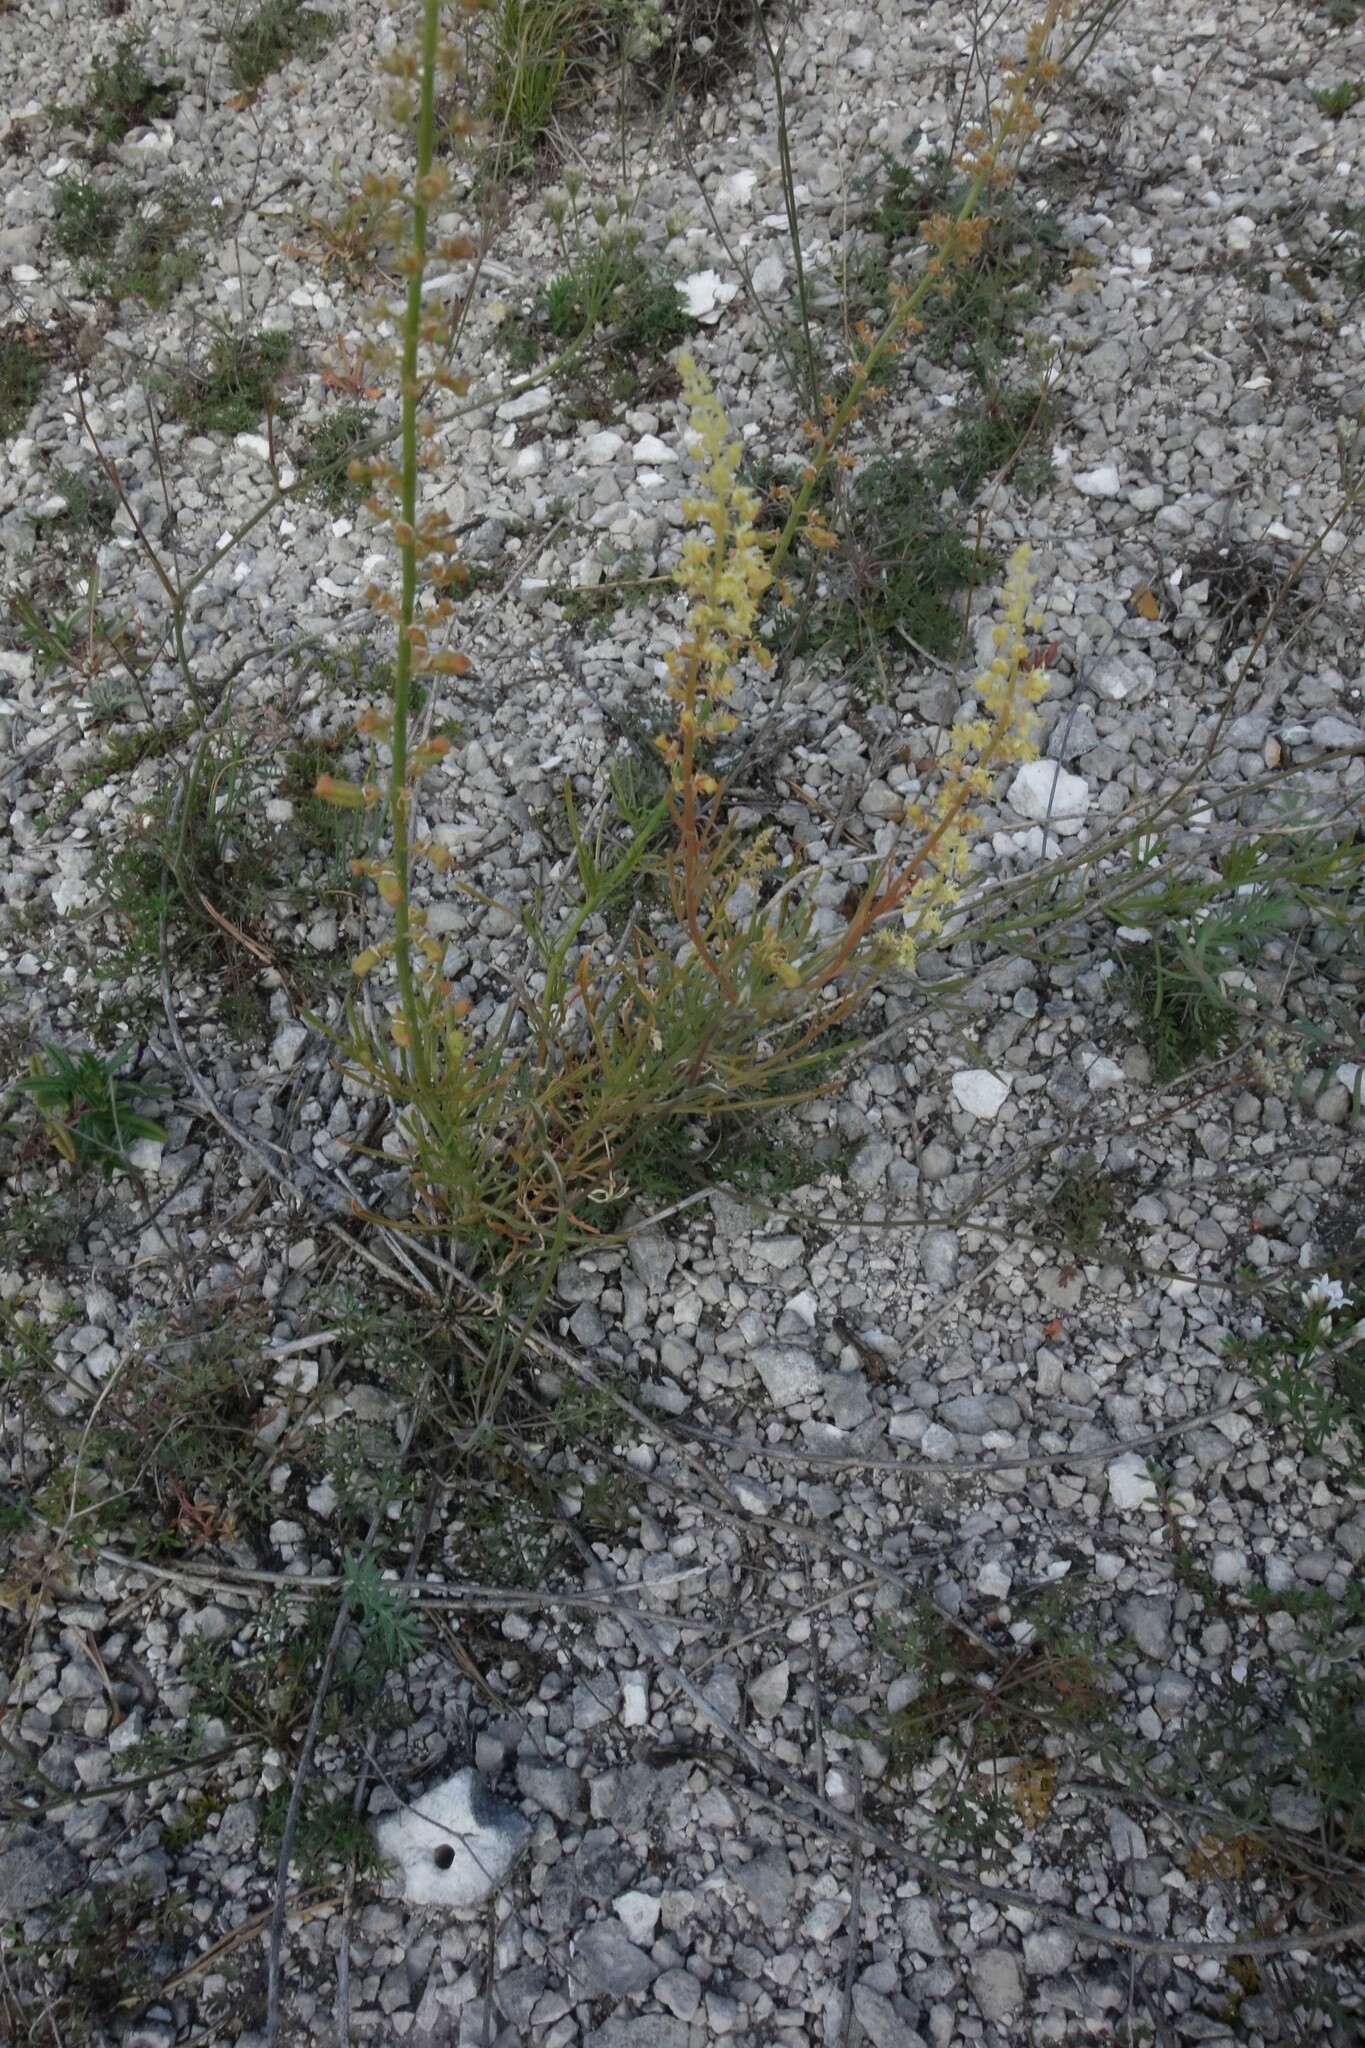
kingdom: Plantae
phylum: Tracheophyta
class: Magnoliopsida
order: Brassicales
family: Resedaceae
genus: Reseda
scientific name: Reseda lutea
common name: Wild mignonette
